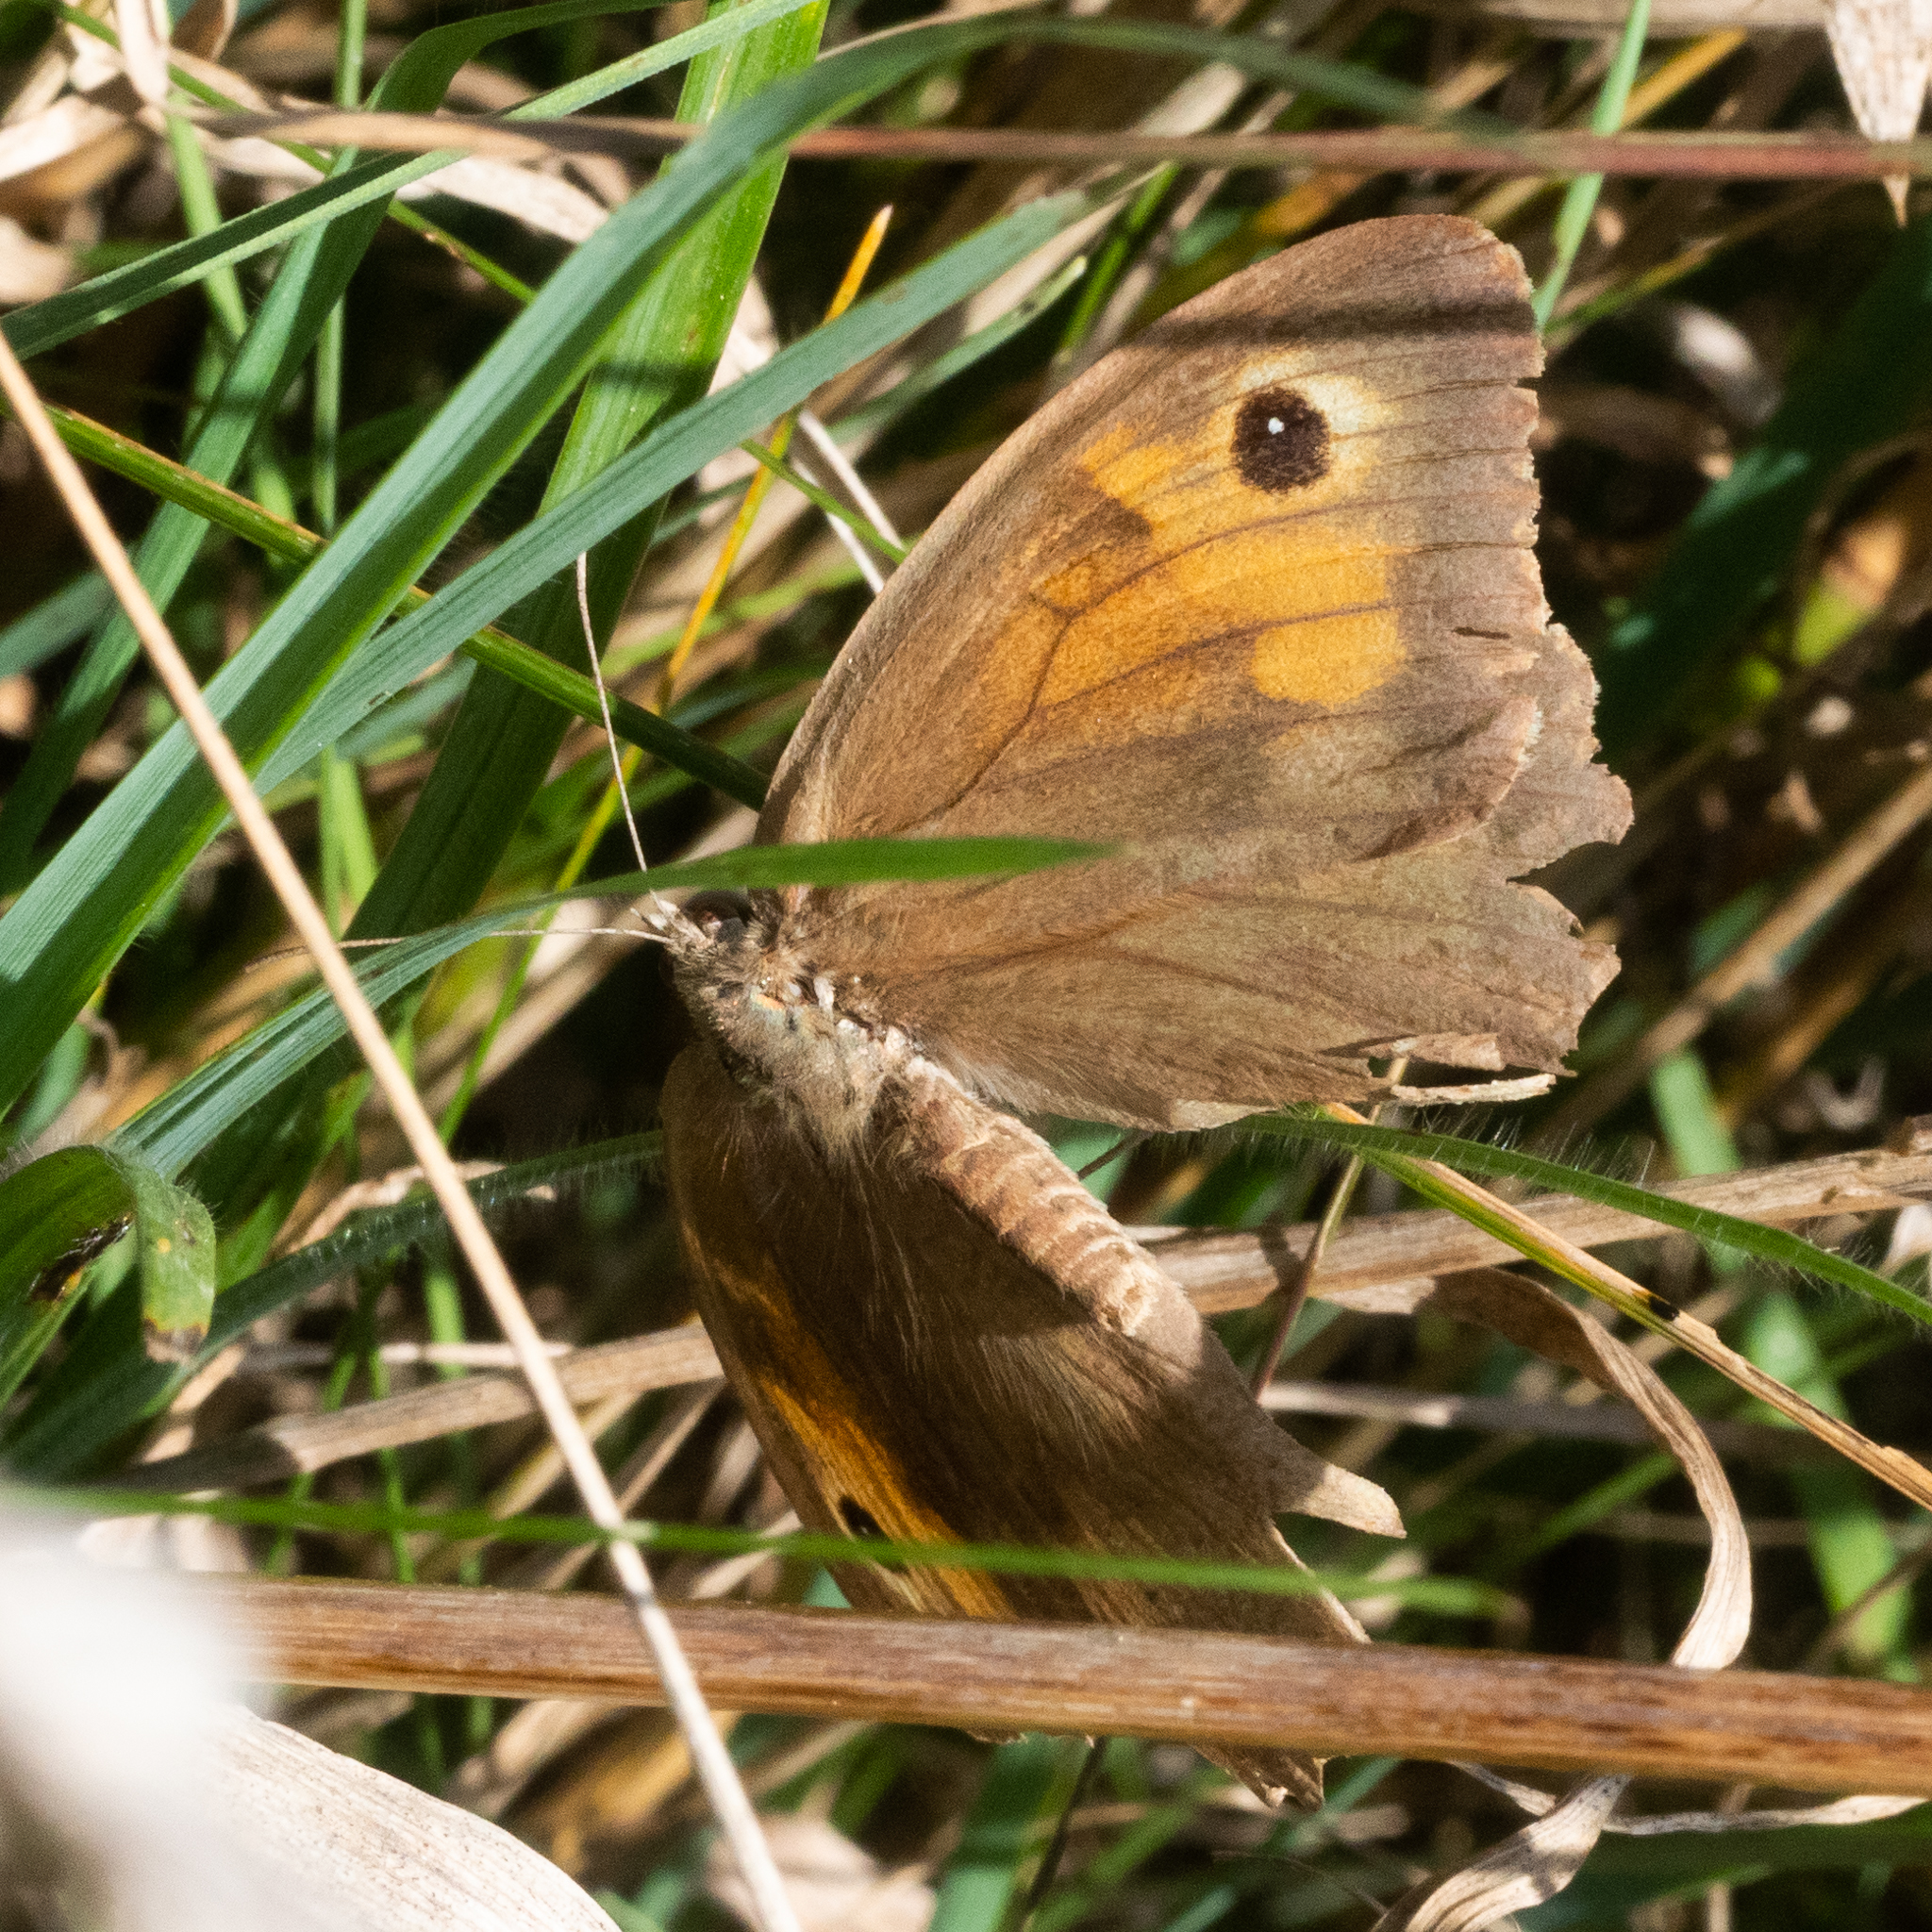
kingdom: Animalia
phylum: Arthropoda
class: Insecta
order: Lepidoptera
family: Nymphalidae
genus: Maniola
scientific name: Maniola jurtina
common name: Meadow brown
